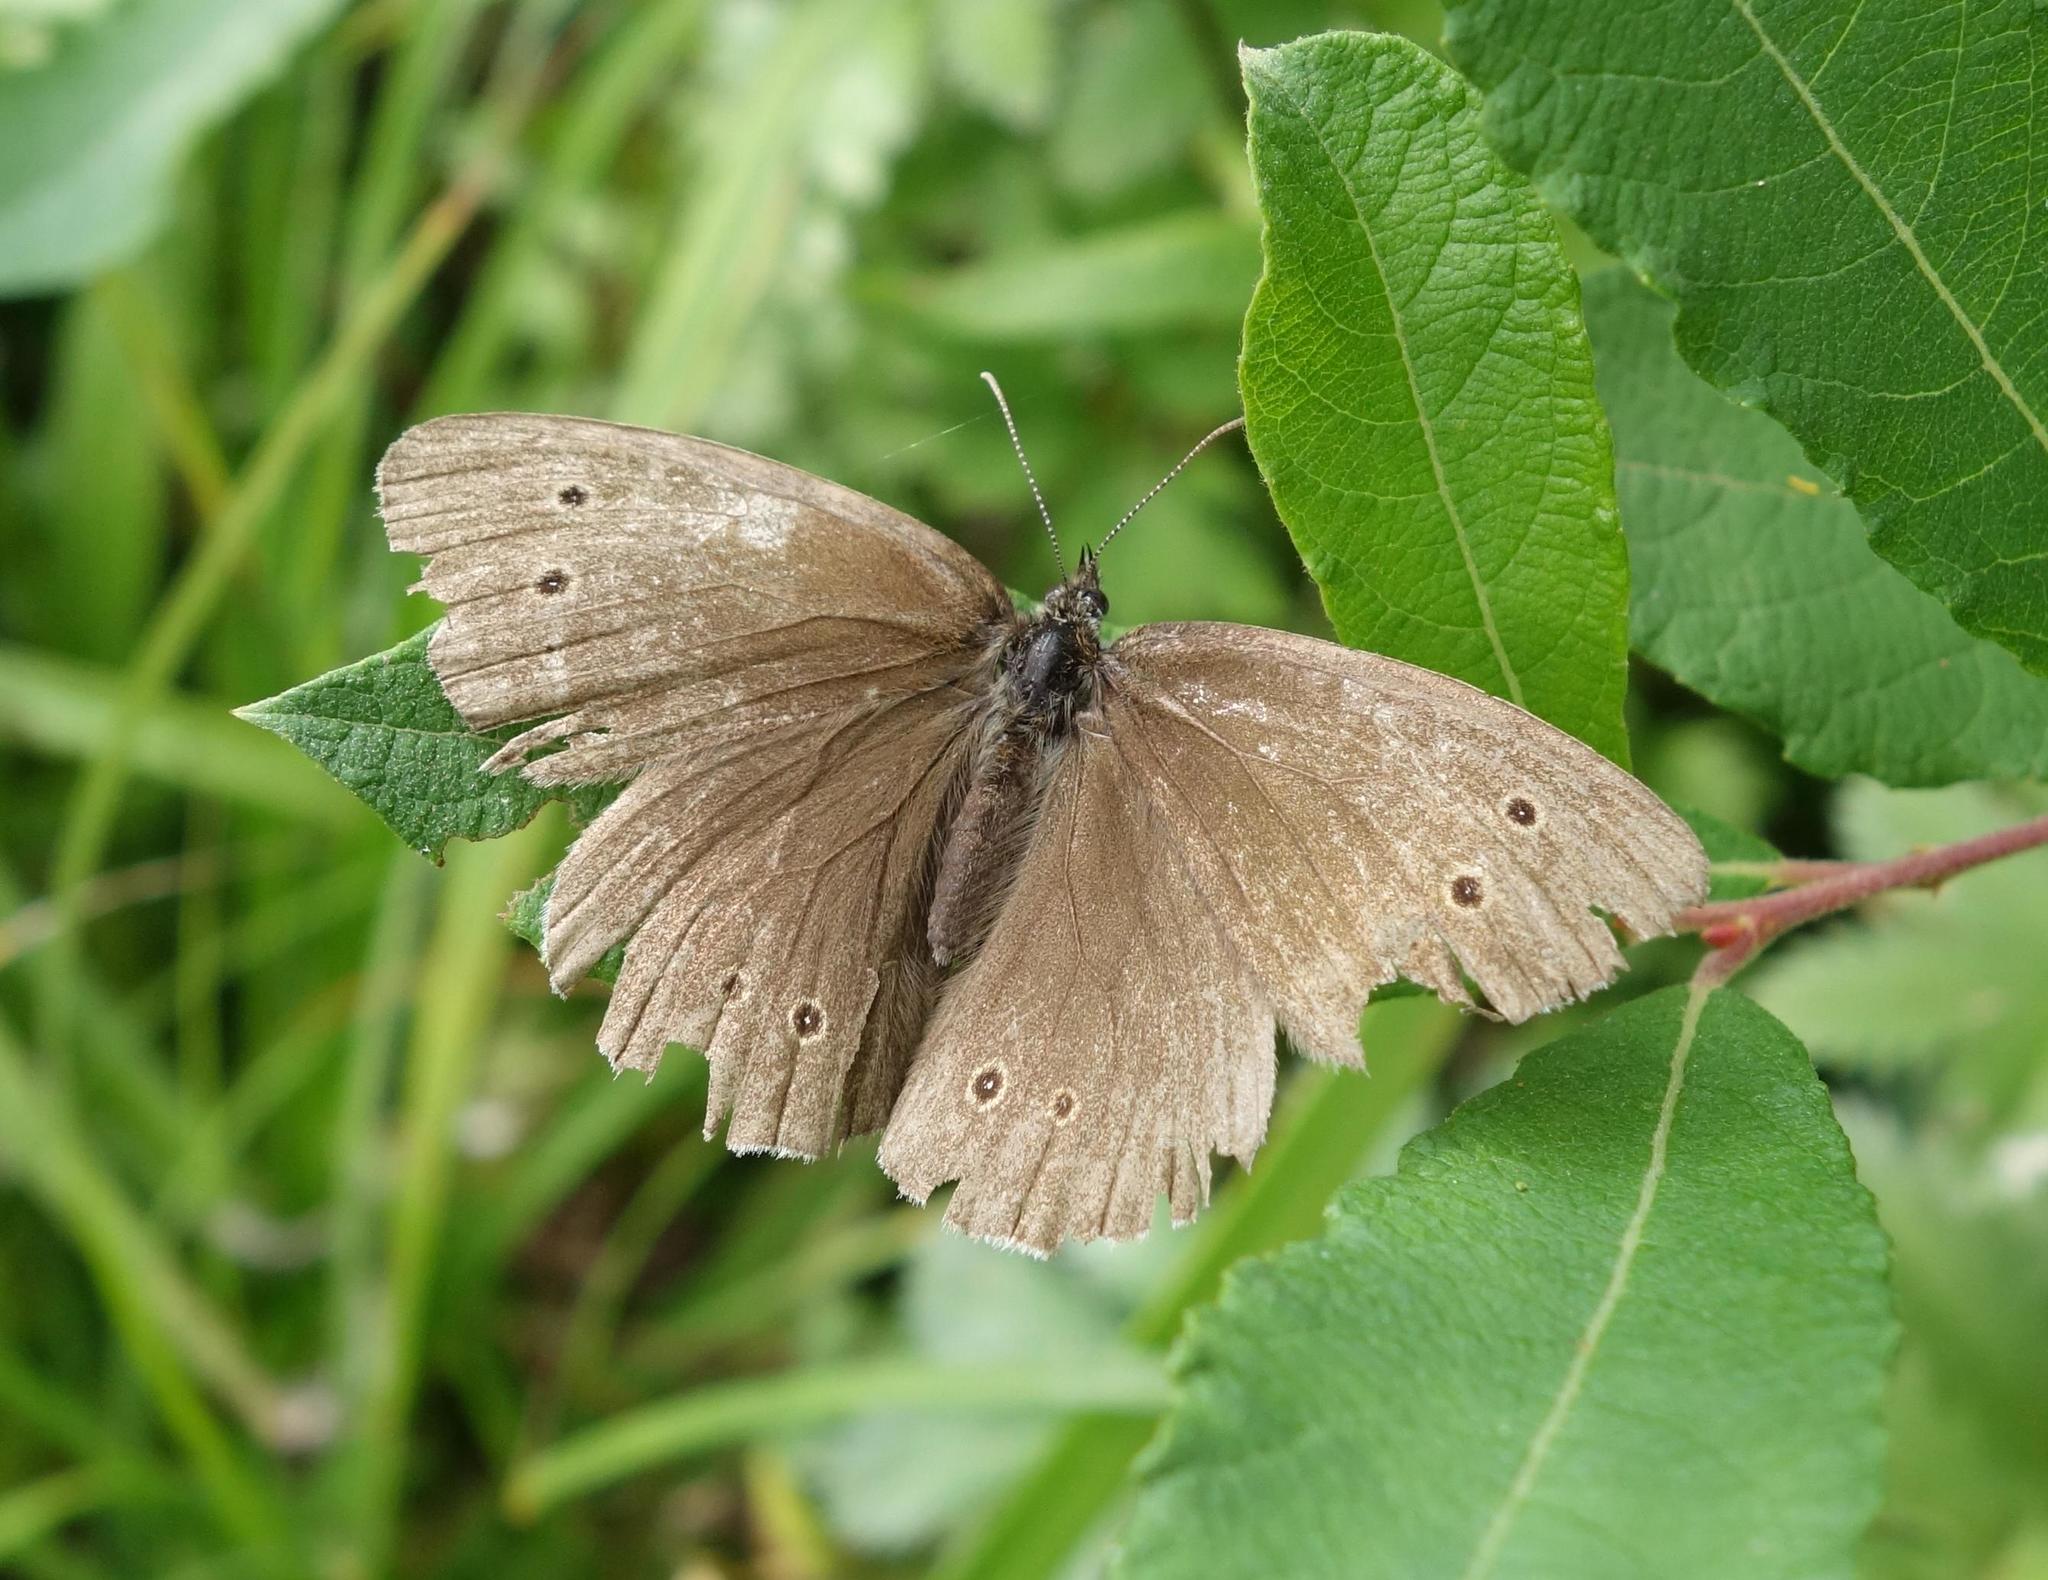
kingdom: Animalia
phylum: Arthropoda
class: Insecta
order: Lepidoptera
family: Nymphalidae
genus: Aphantopus
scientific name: Aphantopus hyperantus
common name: Ringlet
